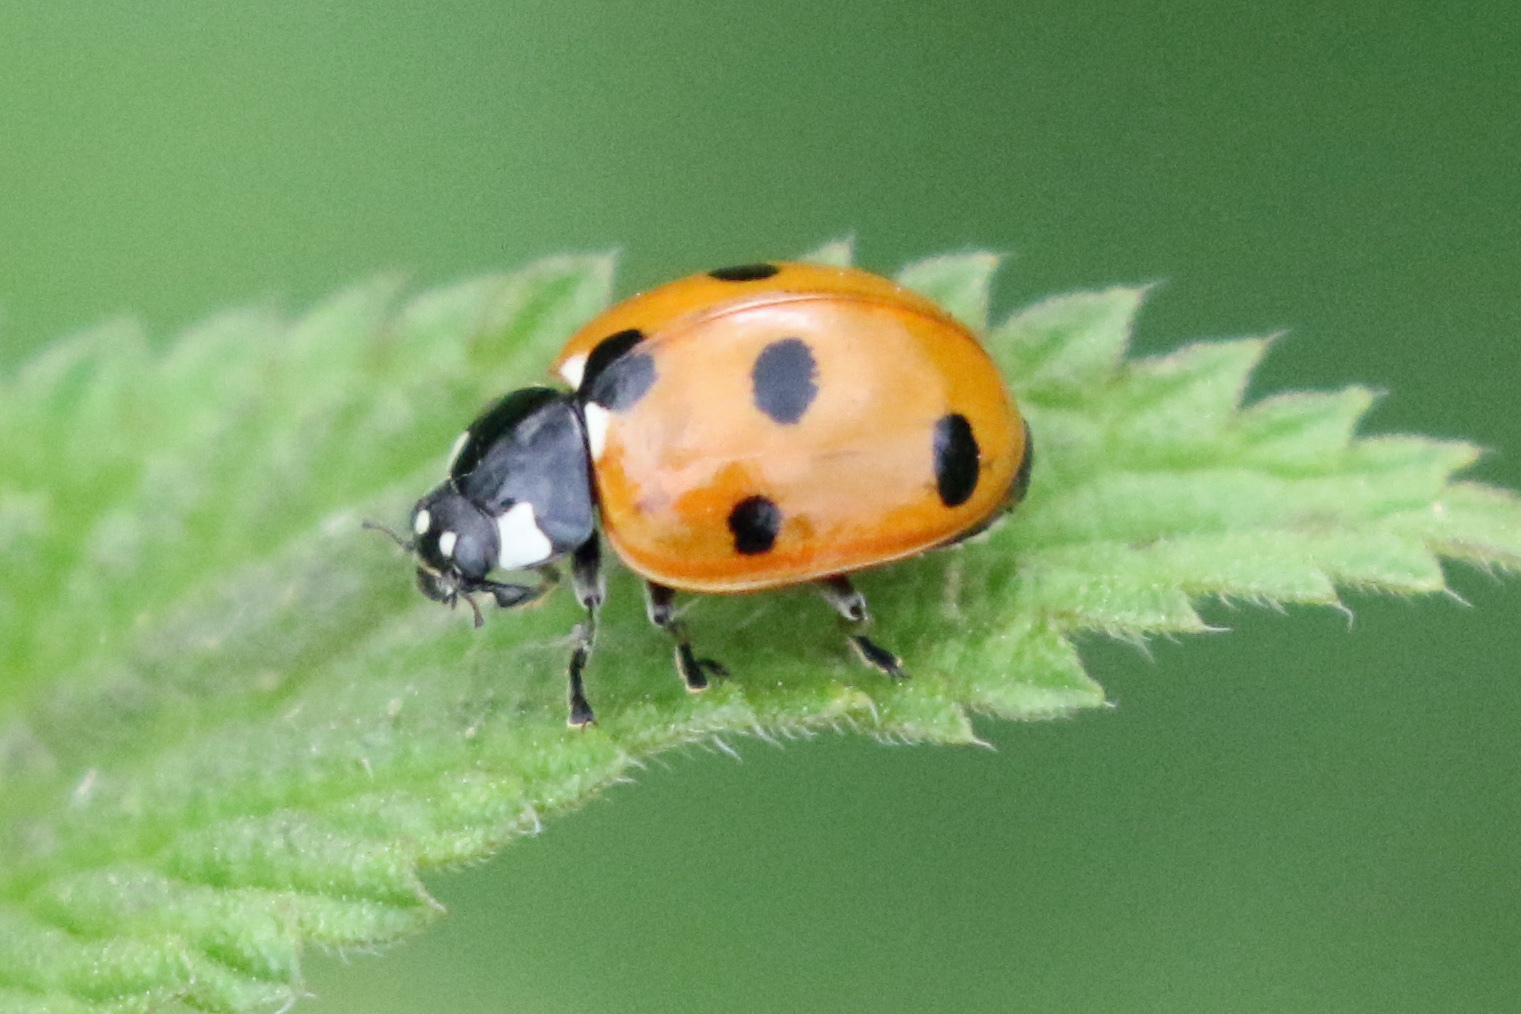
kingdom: Animalia
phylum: Arthropoda
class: Insecta
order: Coleoptera
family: Coccinellidae
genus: Coccinella
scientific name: Coccinella septempunctata
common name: Sevenspotted lady beetle
